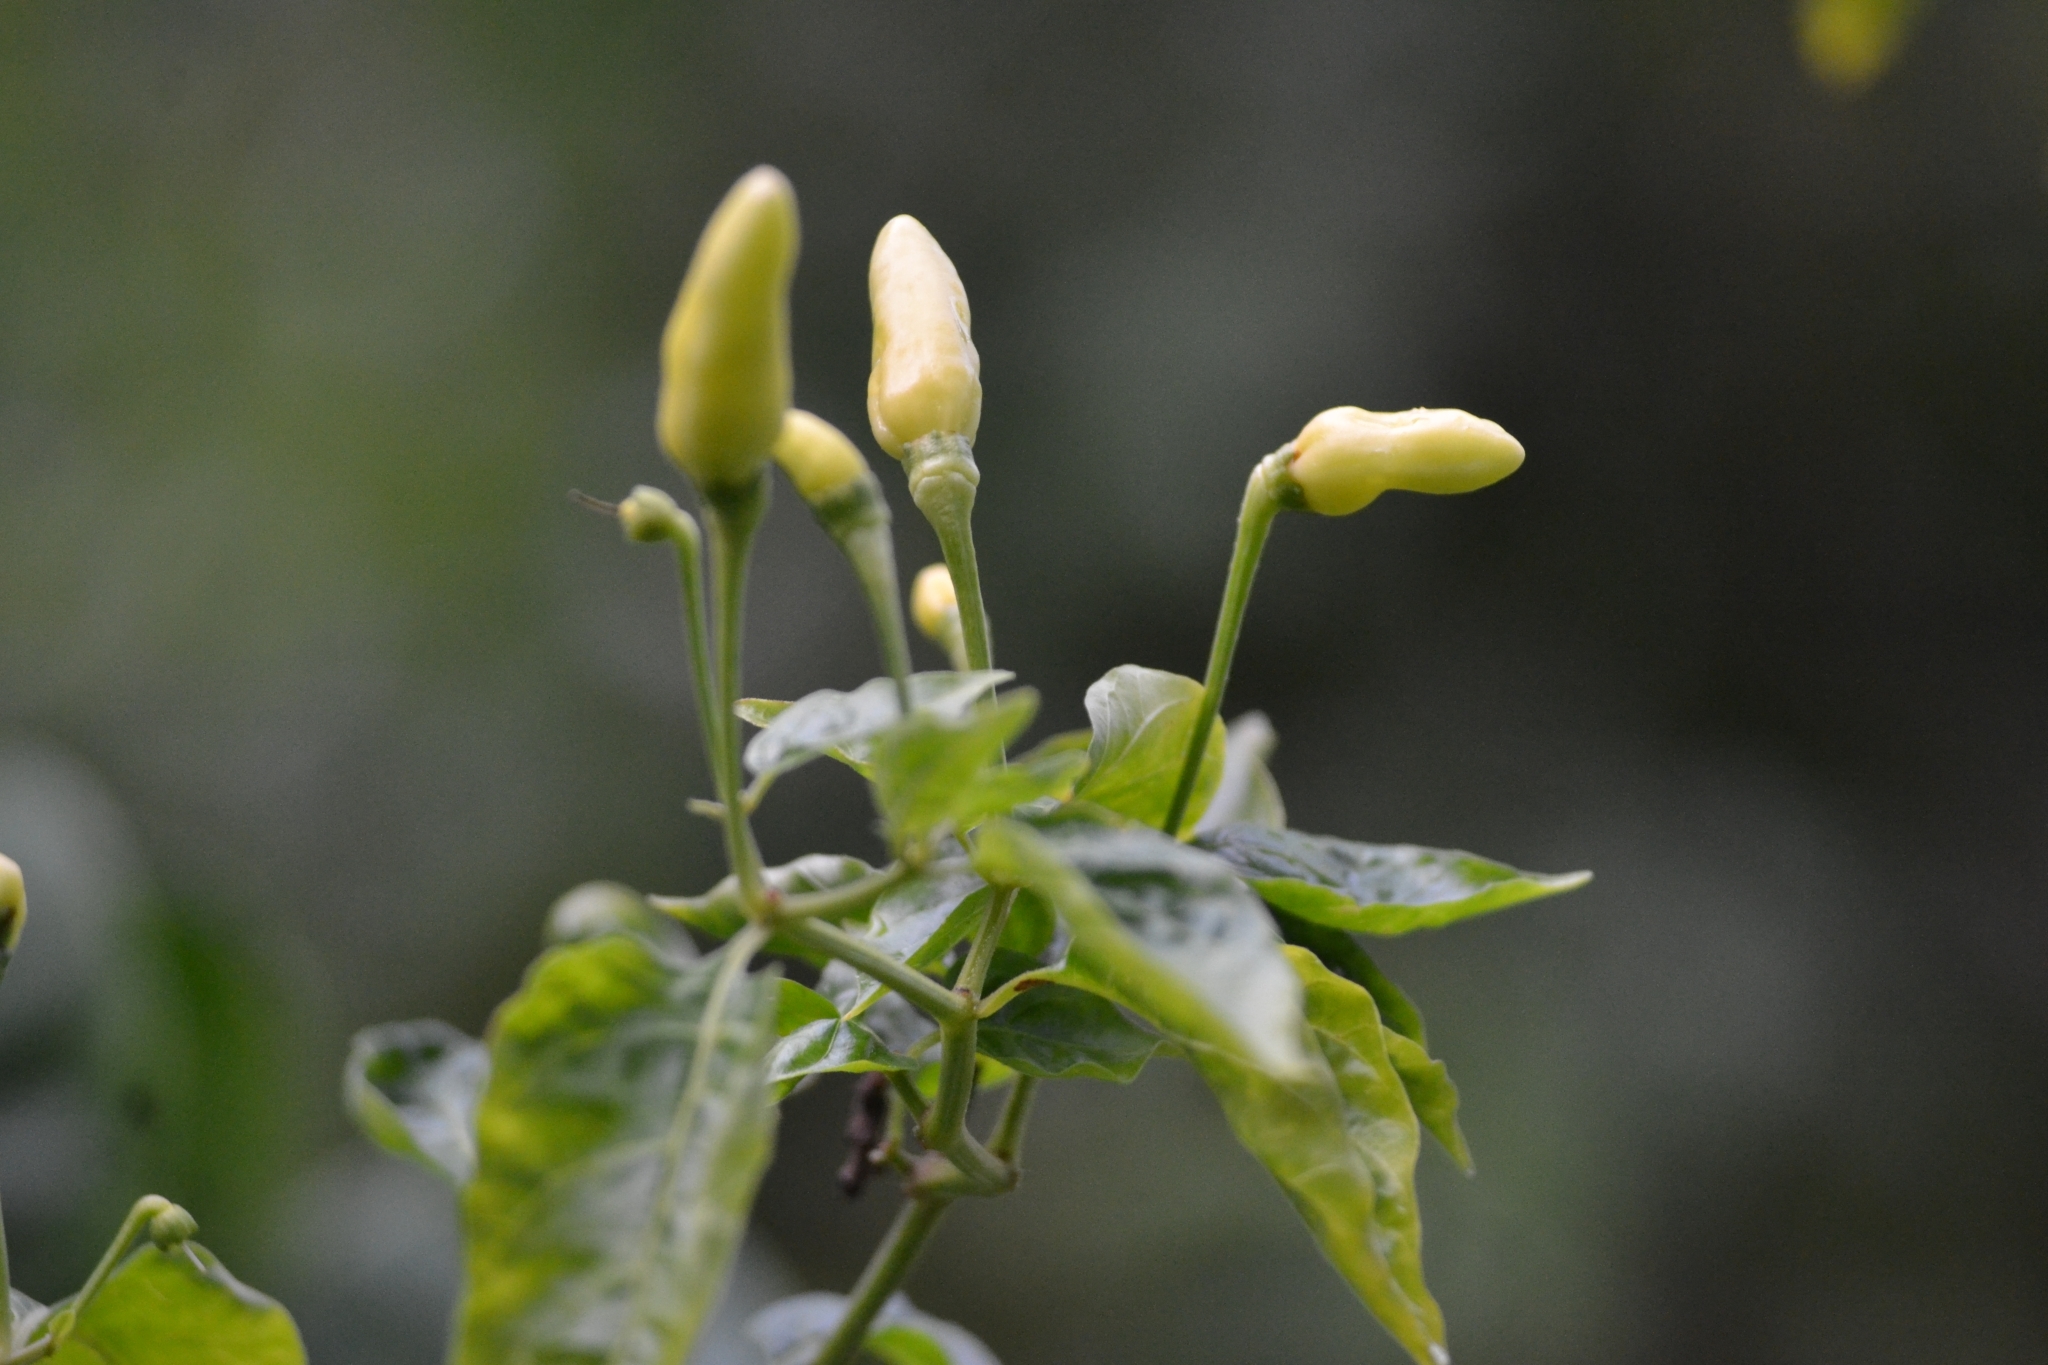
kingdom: Plantae
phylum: Tracheophyta
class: Magnoliopsida
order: Solanales
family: Solanaceae
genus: Capsicum
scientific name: Capsicum annuum
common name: Sweet pepper
